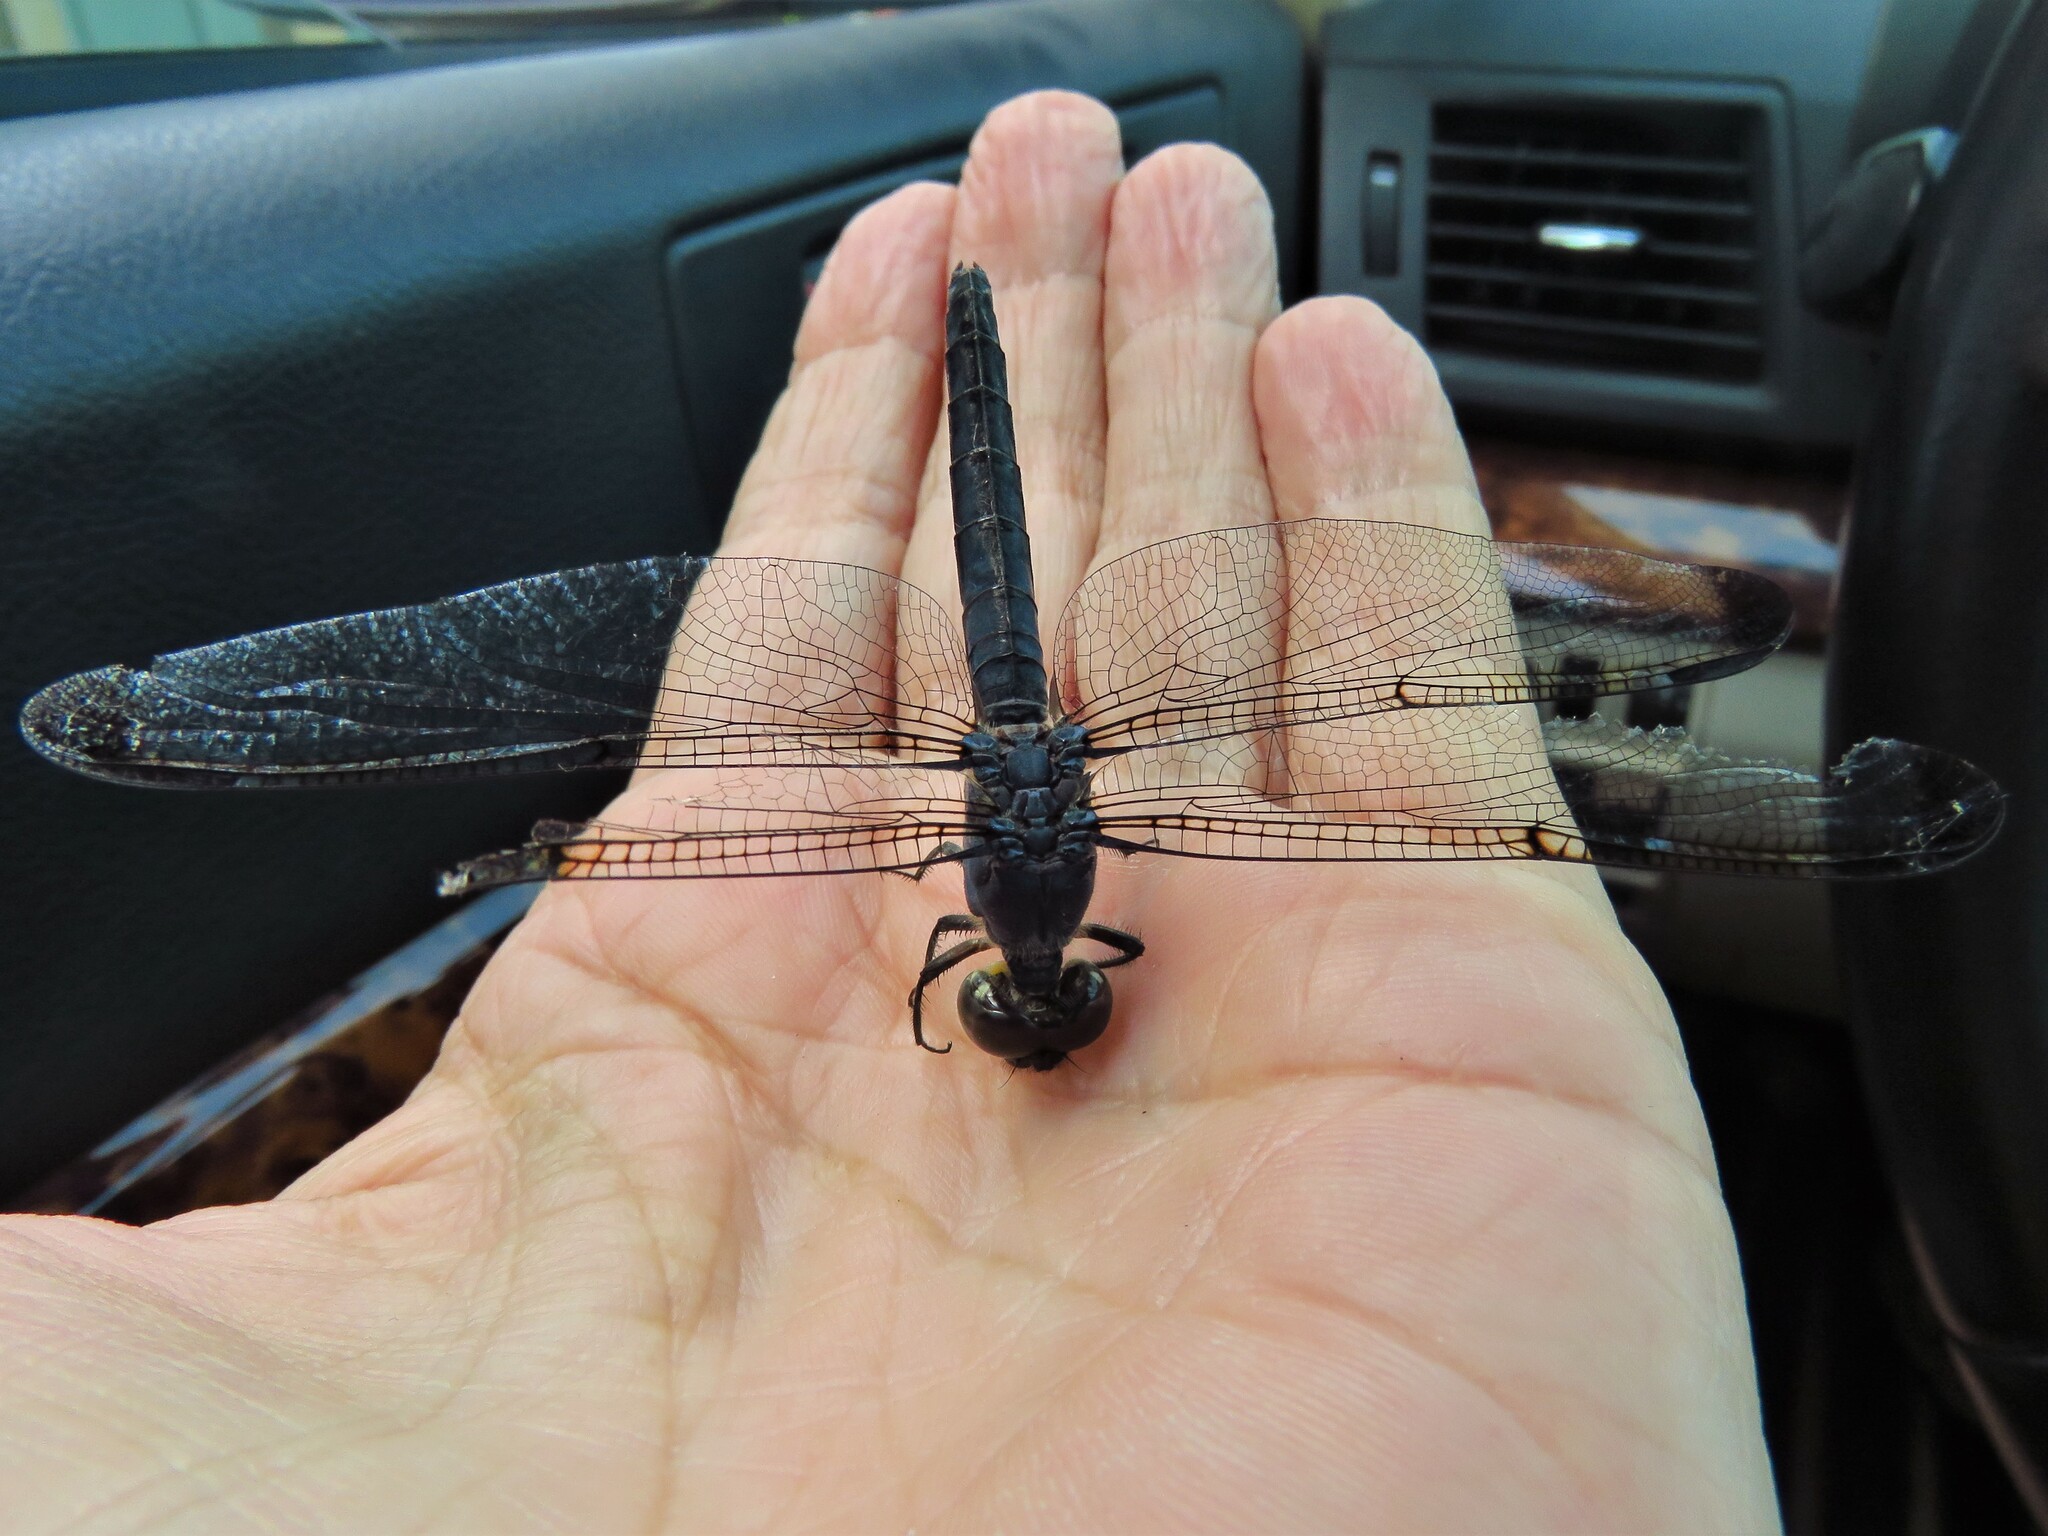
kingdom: Animalia
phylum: Arthropoda
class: Insecta
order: Odonata
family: Libellulidae
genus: Libellula
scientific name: Libellula incesta
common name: Slaty skimmer
